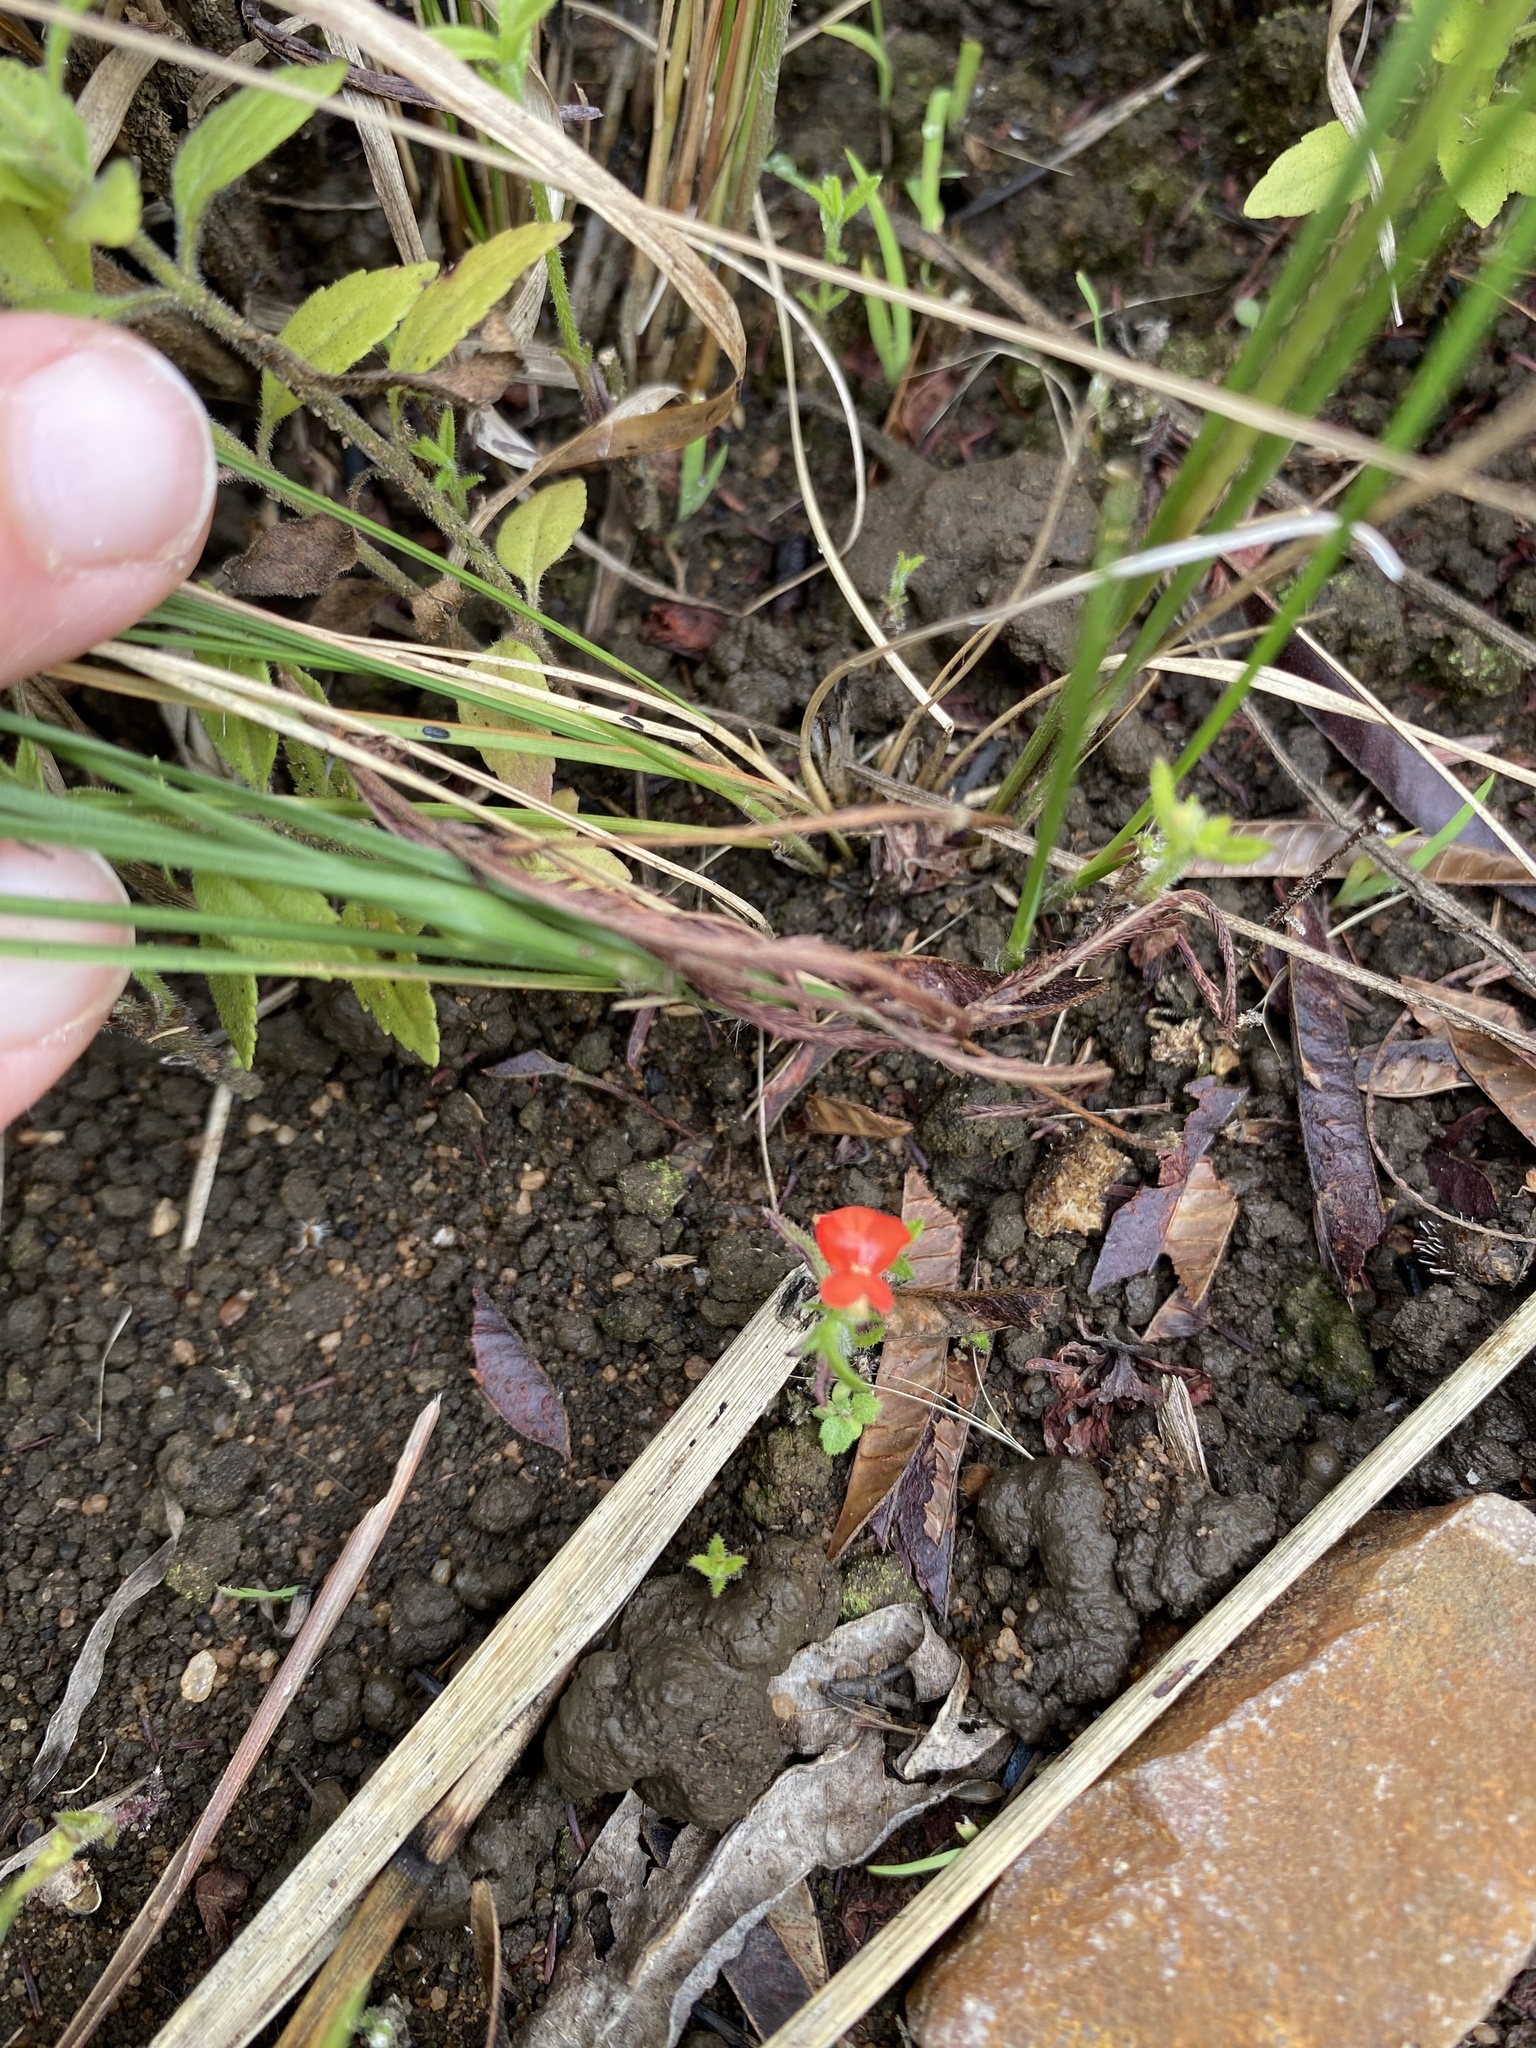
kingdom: Plantae
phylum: Tracheophyta
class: Magnoliopsida
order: Lamiales
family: Orobanchaceae
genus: Striga
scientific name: Striga asiatica
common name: Asiatic witchweed
